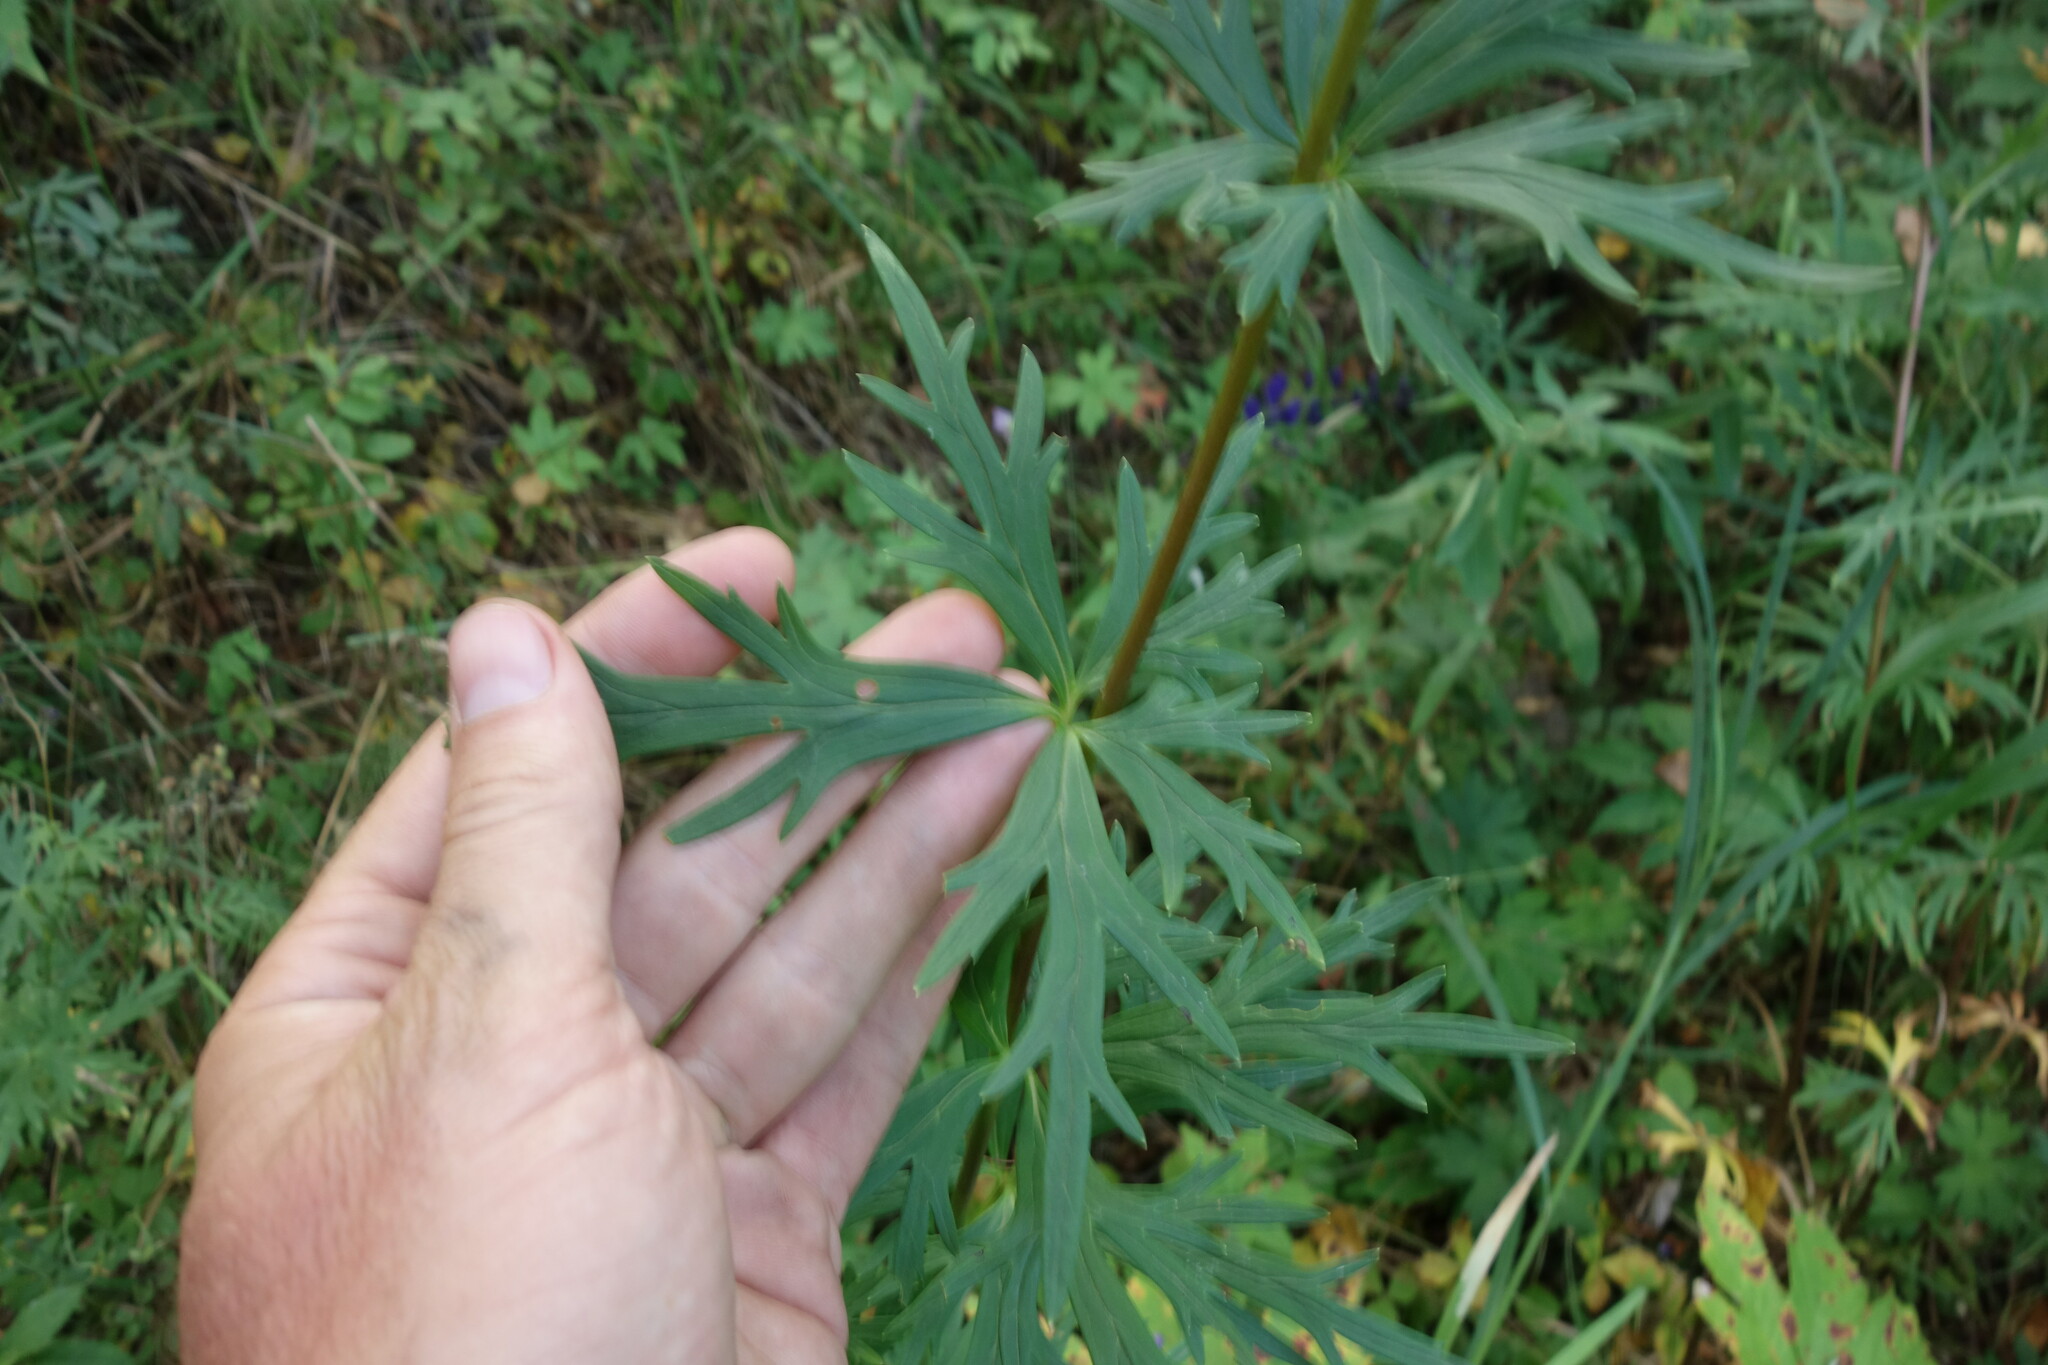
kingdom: Plantae
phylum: Tracheophyta
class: Magnoliopsida
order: Ranunculales
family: Ranunculaceae
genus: Aconitum
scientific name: Aconitum baicalense
